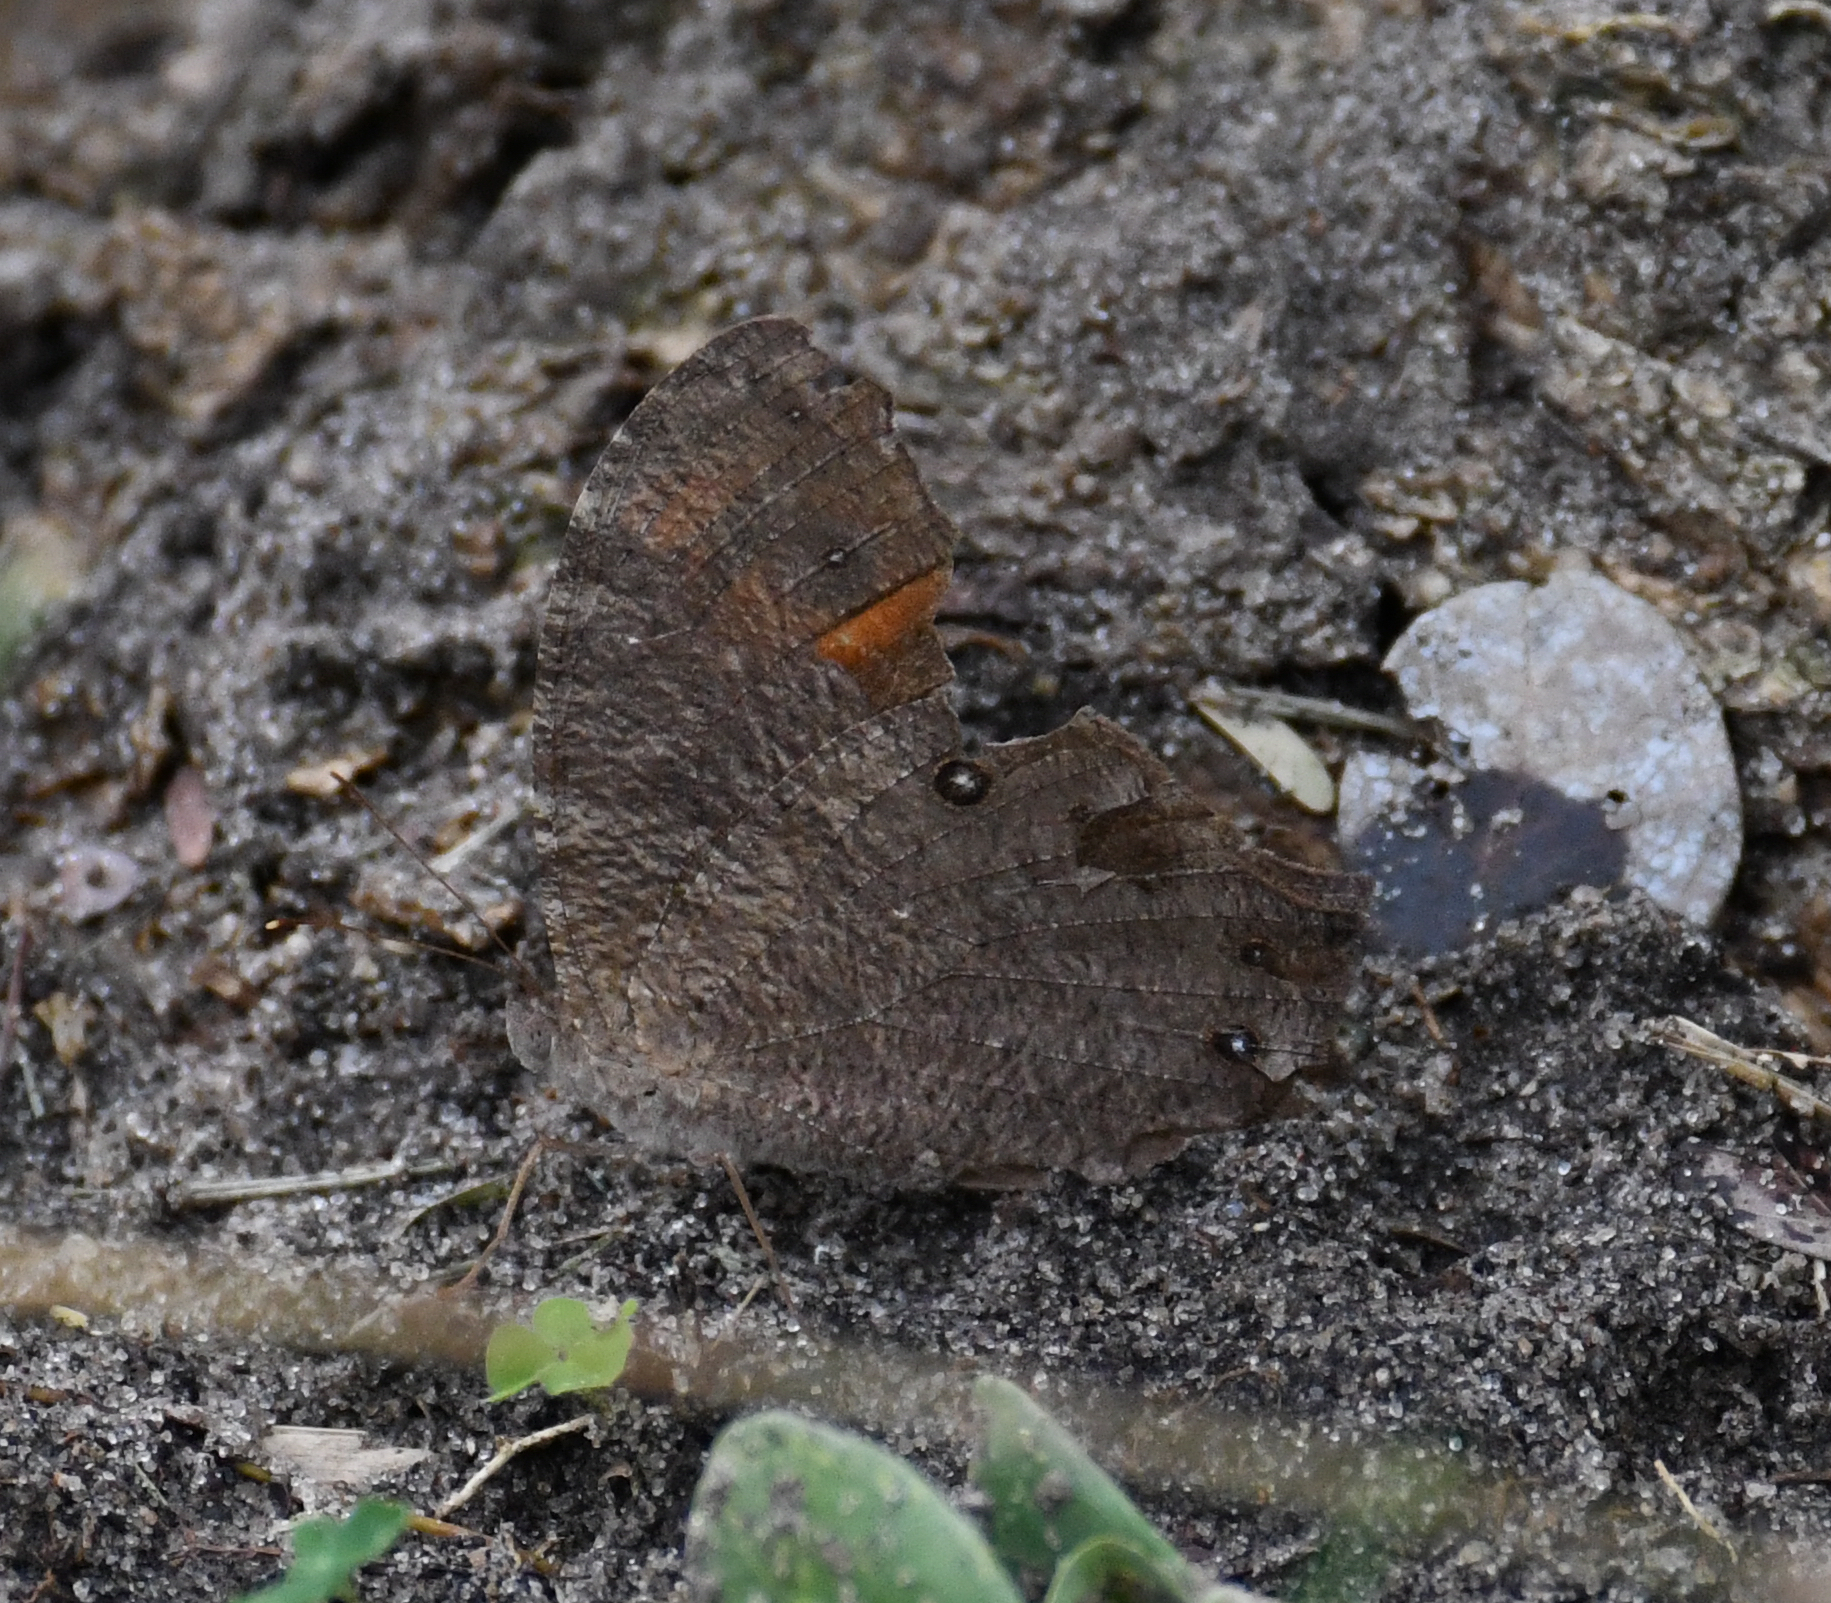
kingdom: Animalia
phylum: Arthropoda
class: Insecta
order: Lepidoptera
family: Nymphalidae
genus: Melanitis
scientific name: Melanitis leda
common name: Twilight brown
